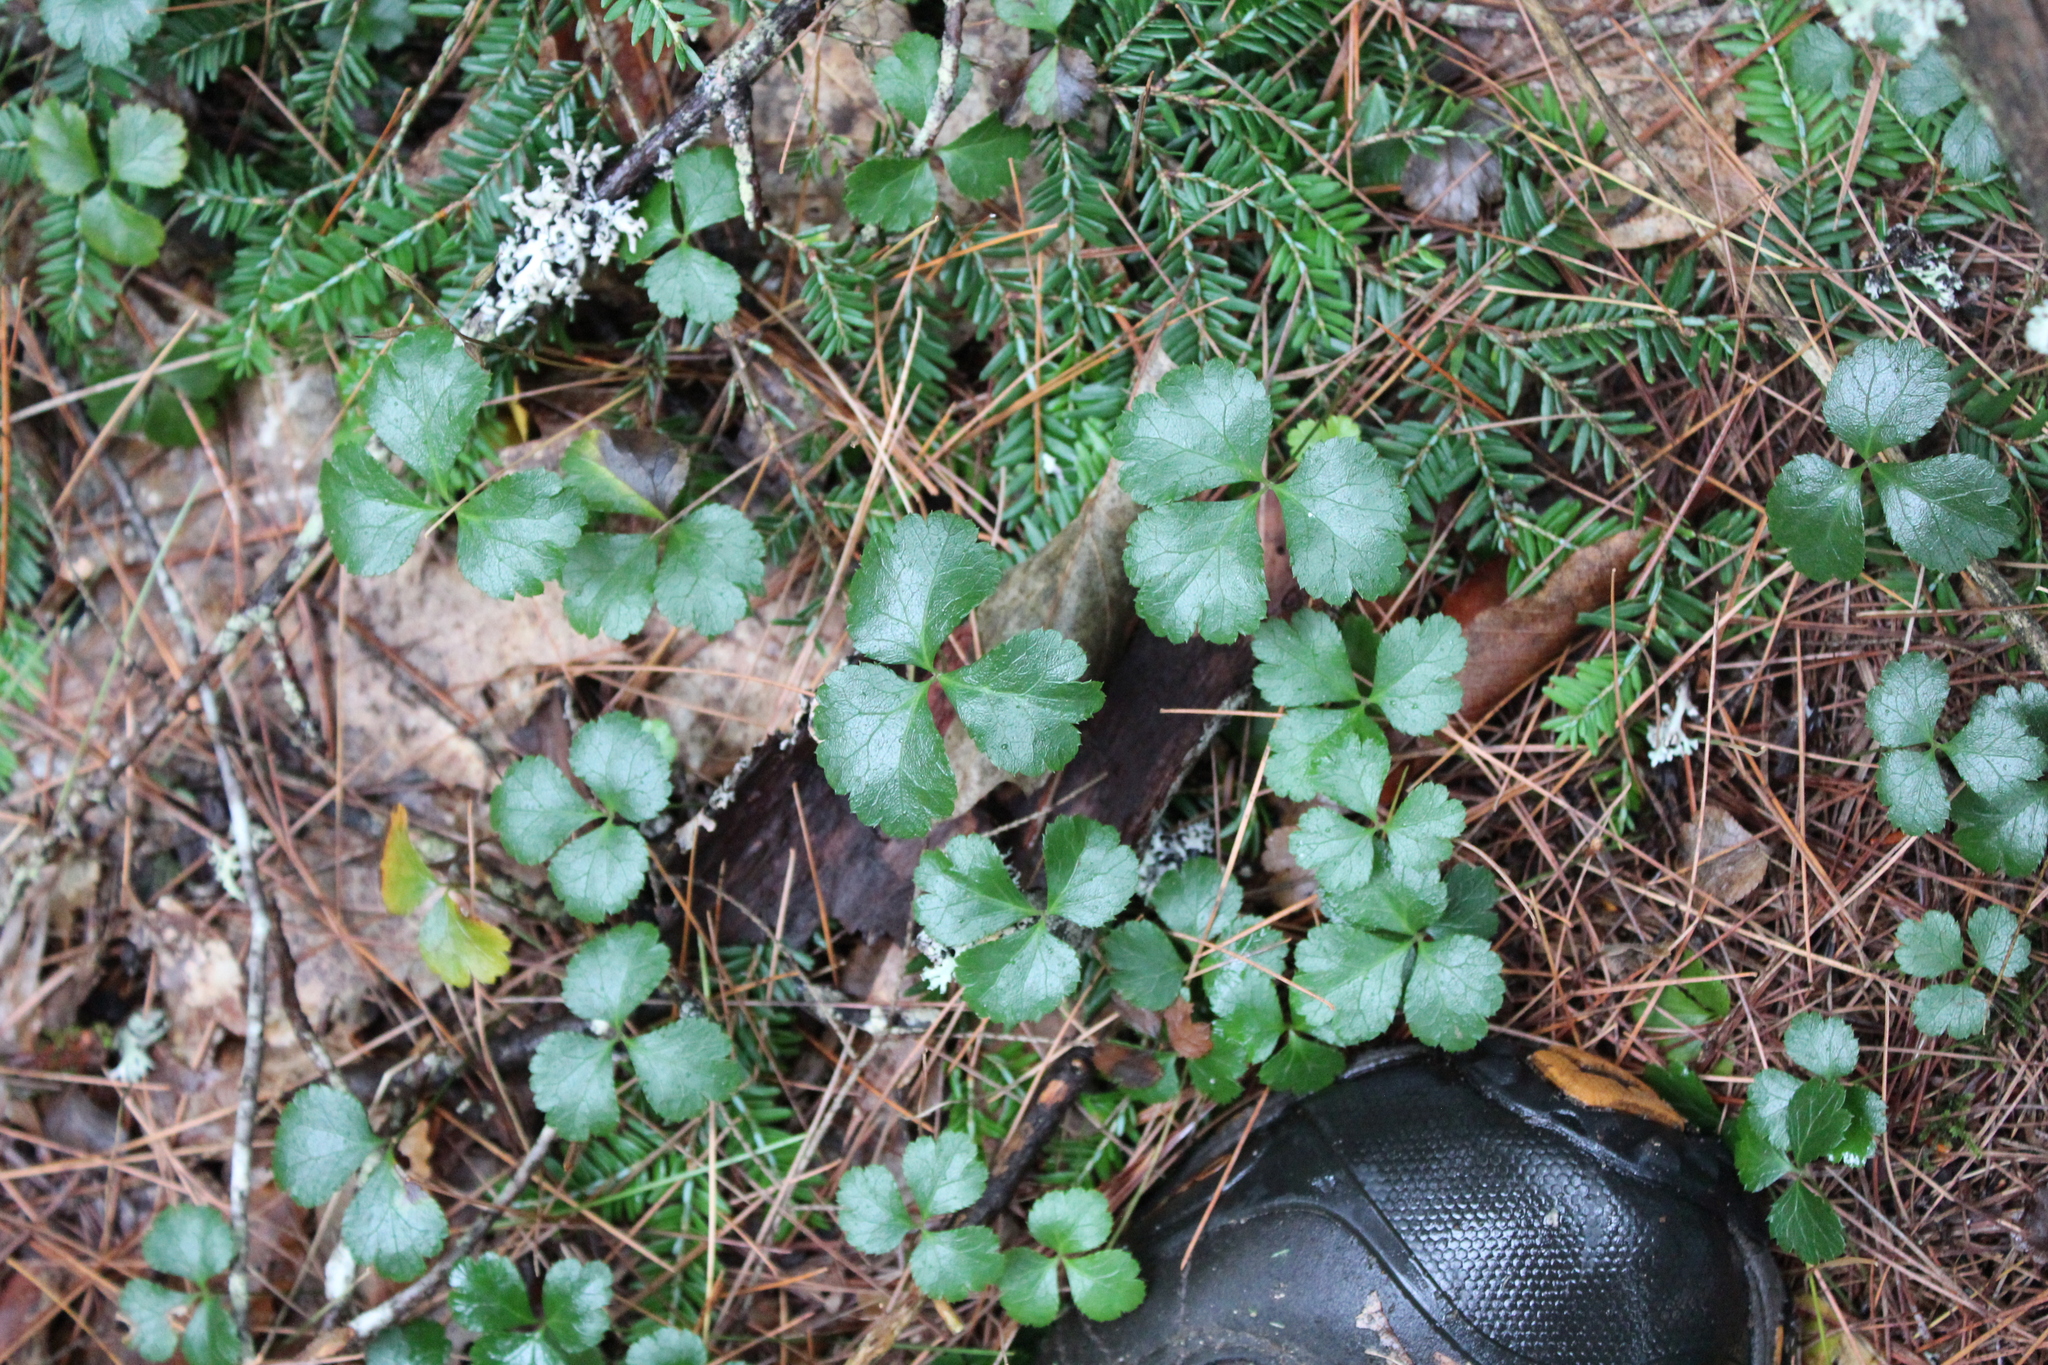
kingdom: Plantae
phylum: Tracheophyta
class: Magnoliopsida
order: Ranunculales
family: Ranunculaceae
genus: Coptis
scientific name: Coptis trifolia
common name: Canker-root
